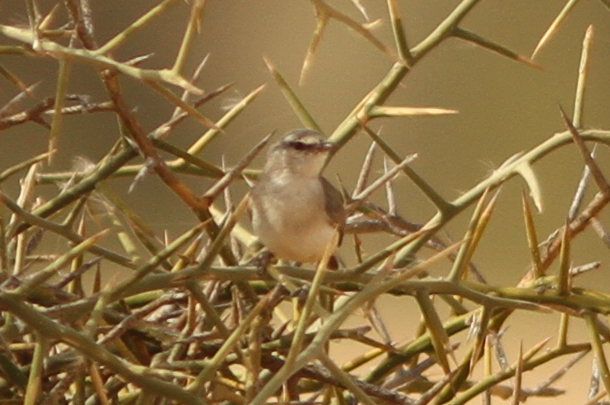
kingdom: Animalia
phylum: Chordata
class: Aves
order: Passeriformes
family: Cisticolidae
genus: Eremomela
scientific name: Eremomela icteropygialis
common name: Yellow-bellied eremomela
